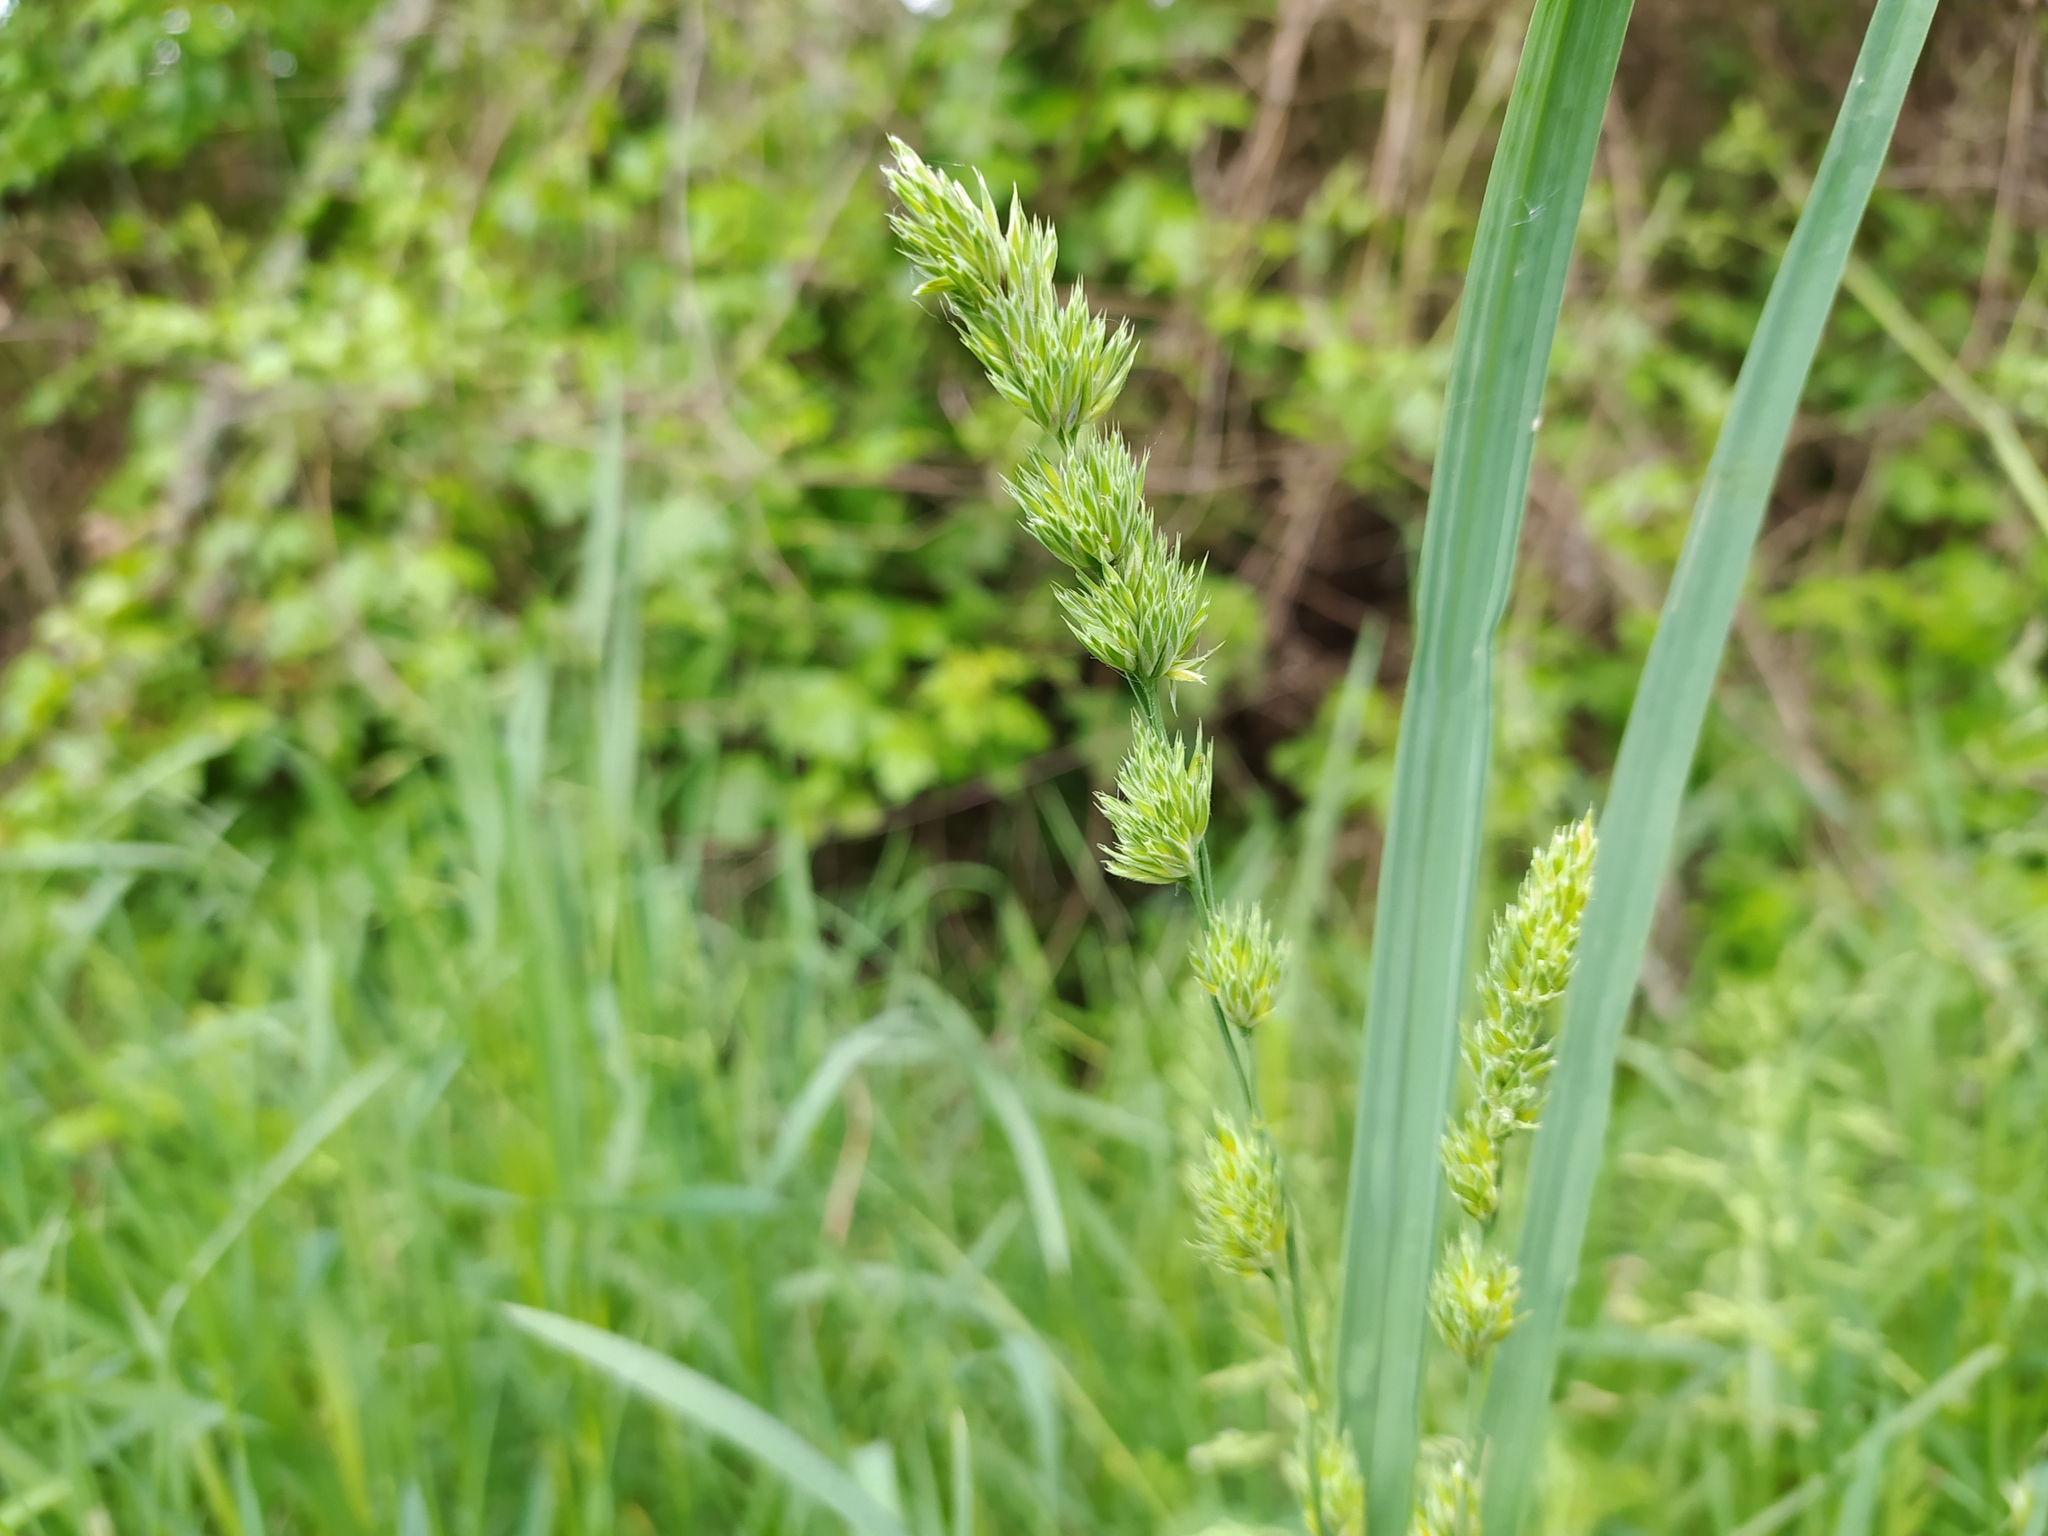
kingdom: Plantae
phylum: Tracheophyta
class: Liliopsida
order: Poales
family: Poaceae
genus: Dactylis
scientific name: Dactylis glomerata
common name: Orchardgrass
